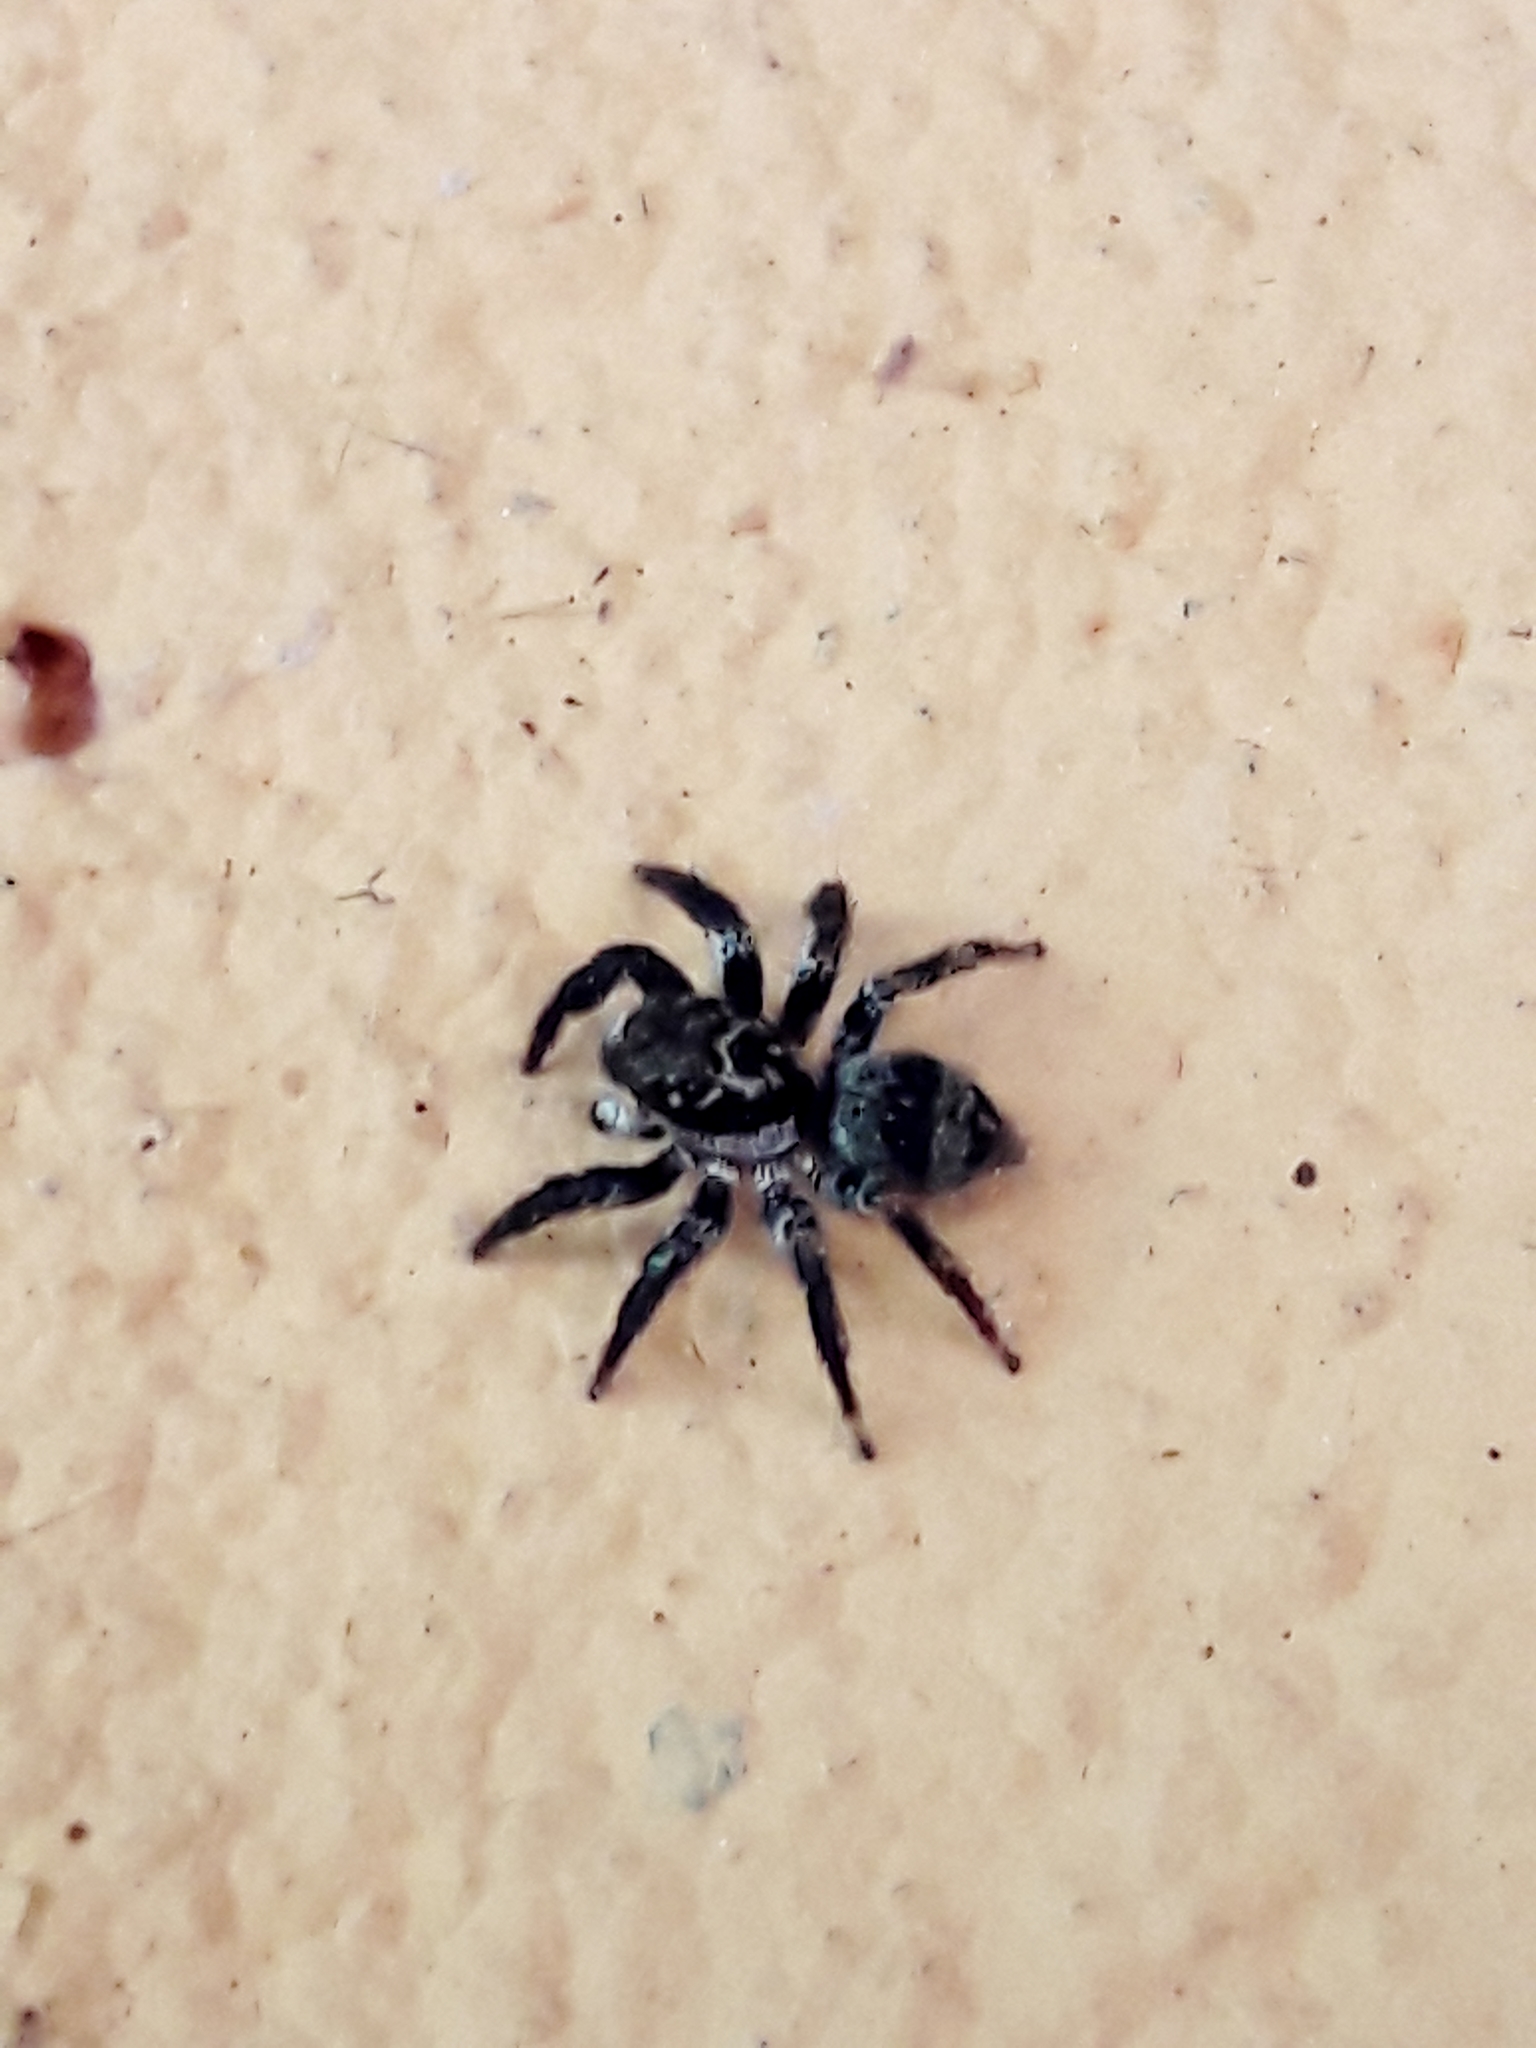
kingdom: Animalia
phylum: Arthropoda
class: Arachnida
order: Araneae
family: Salticidae
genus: Corythalia
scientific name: Corythalia conferta
